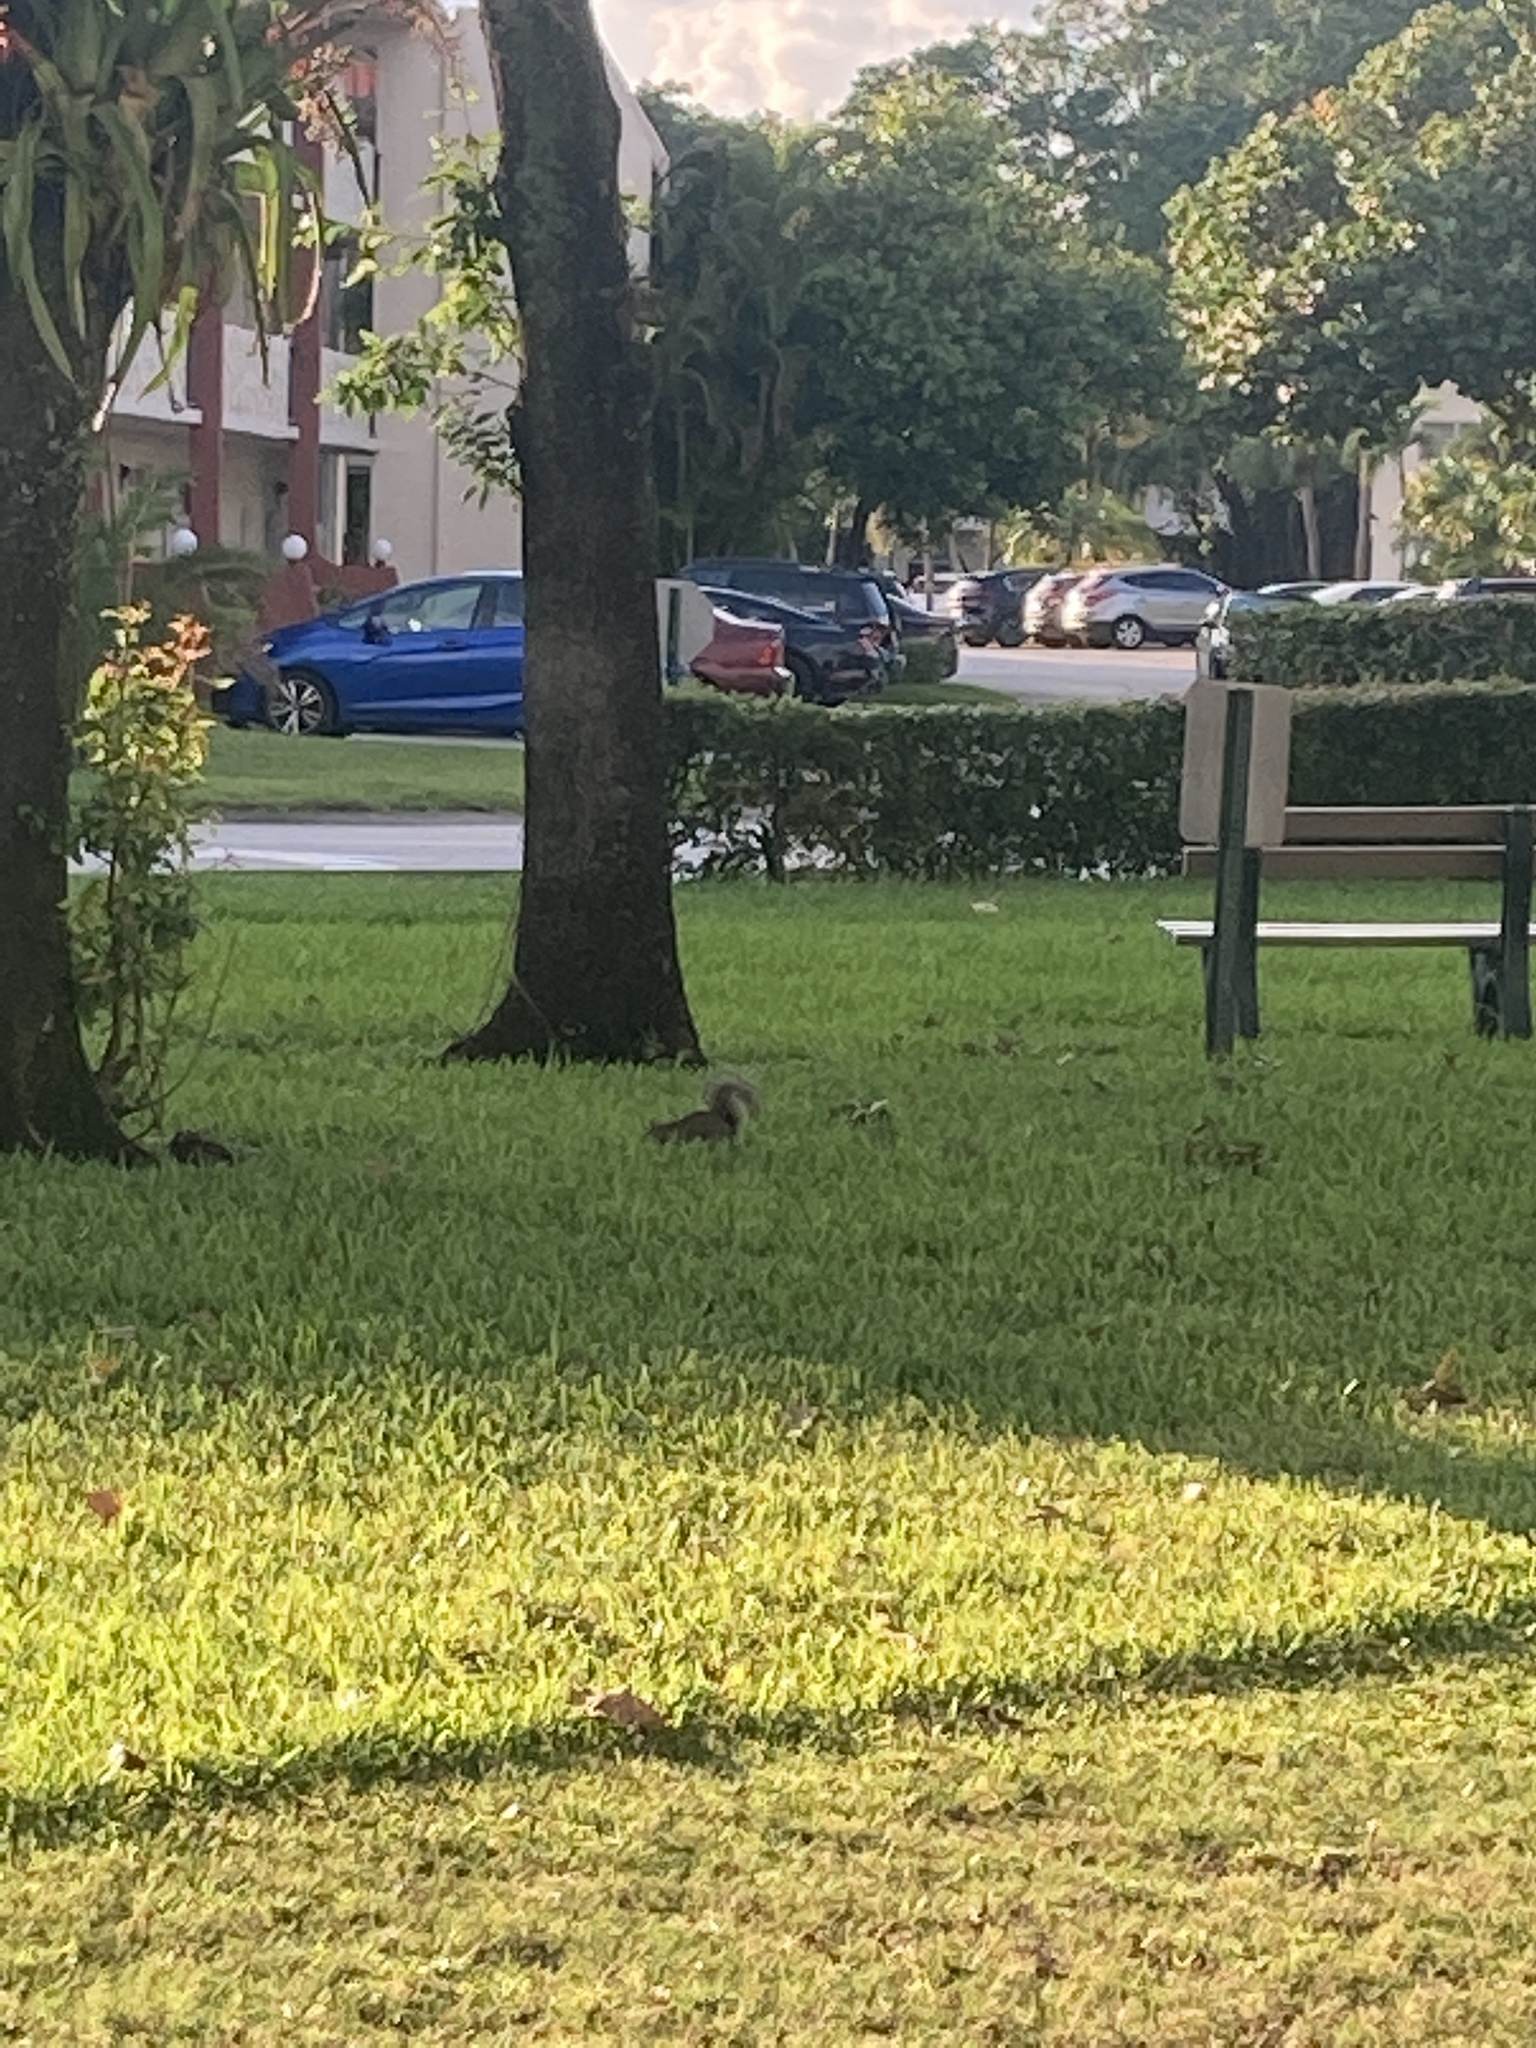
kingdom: Animalia
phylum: Chordata
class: Mammalia
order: Rodentia
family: Sciuridae
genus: Sciurus
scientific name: Sciurus carolinensis
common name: Eastern gray squirrel
